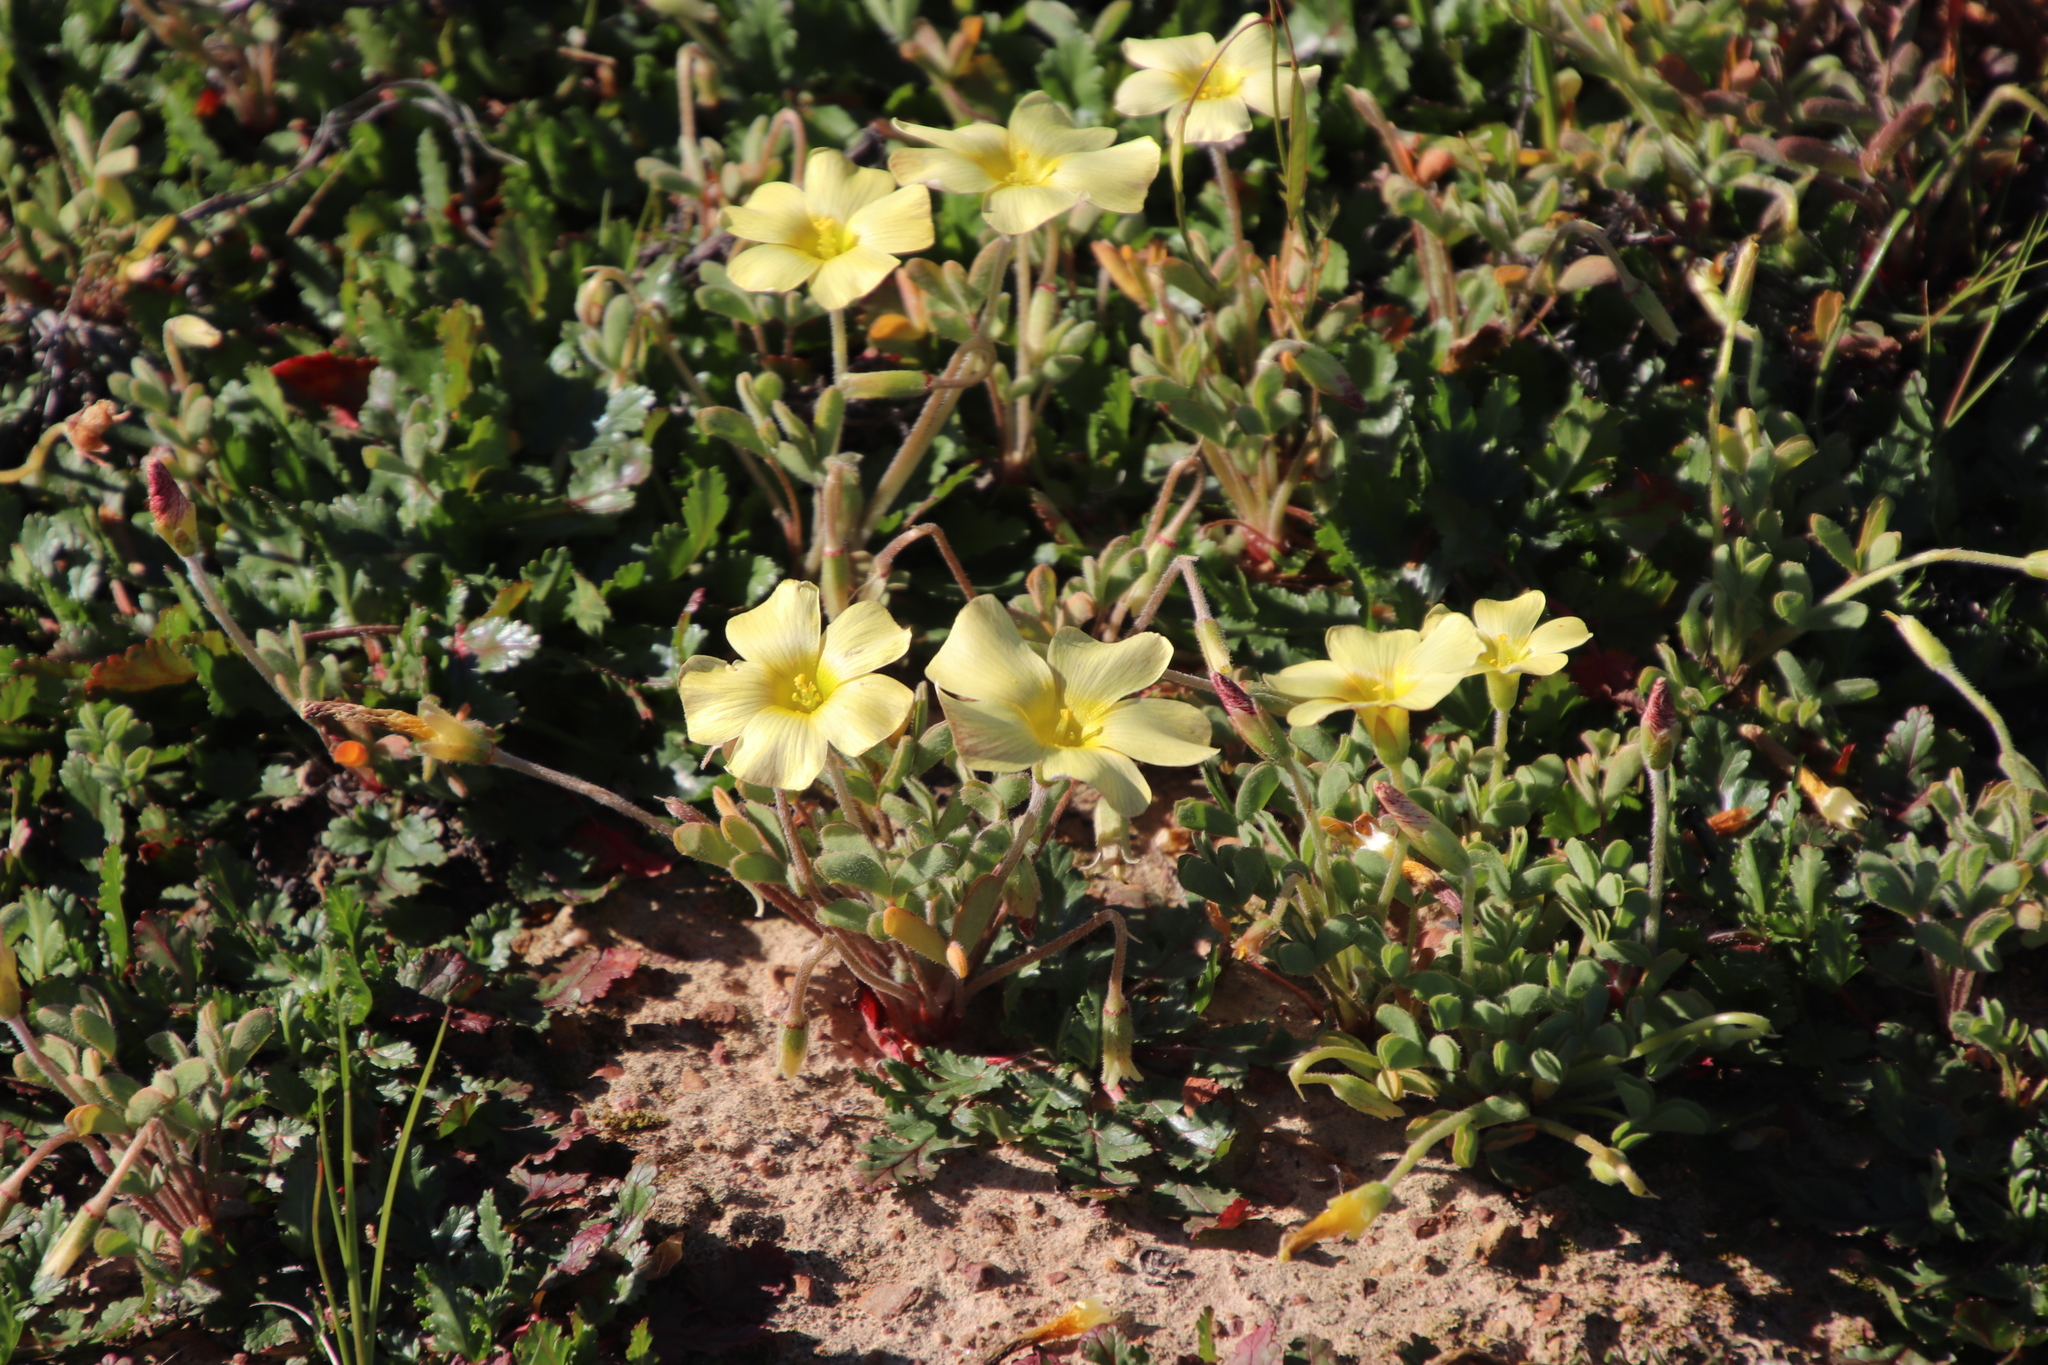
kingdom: Plantae
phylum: Tracheophyta
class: Magnoliopsida
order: Oxalidales
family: Oxalidaceae
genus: Oxalis
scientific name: Oxalis obtusa
